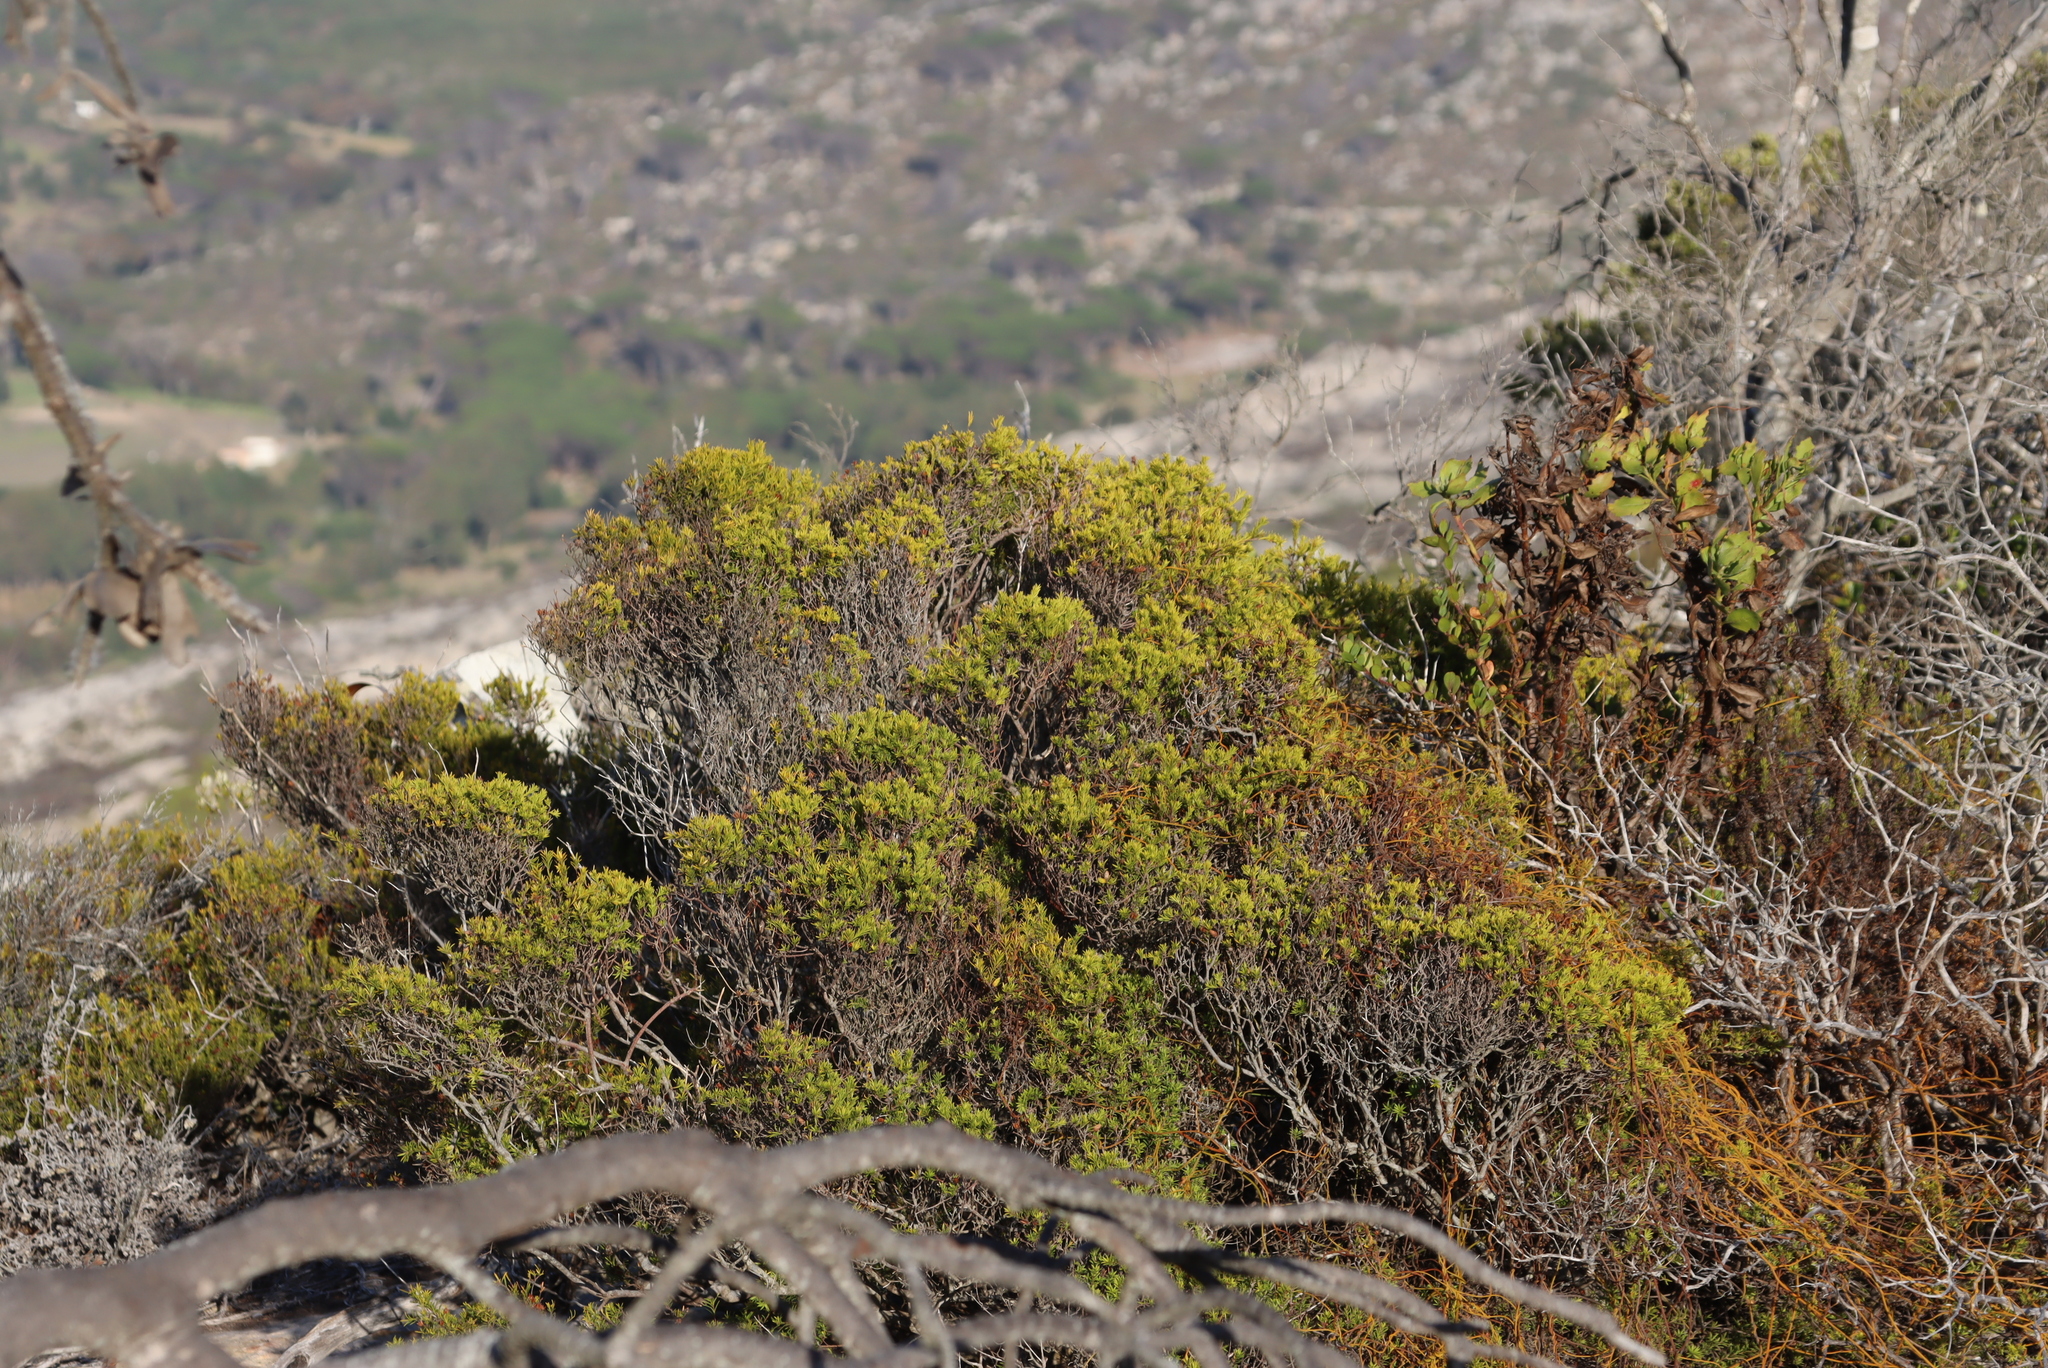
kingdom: Plantae
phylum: Tracheophyta
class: Magnoliopsida
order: Sapindales
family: Rutaceae
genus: Coleonema
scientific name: Coleonema album
